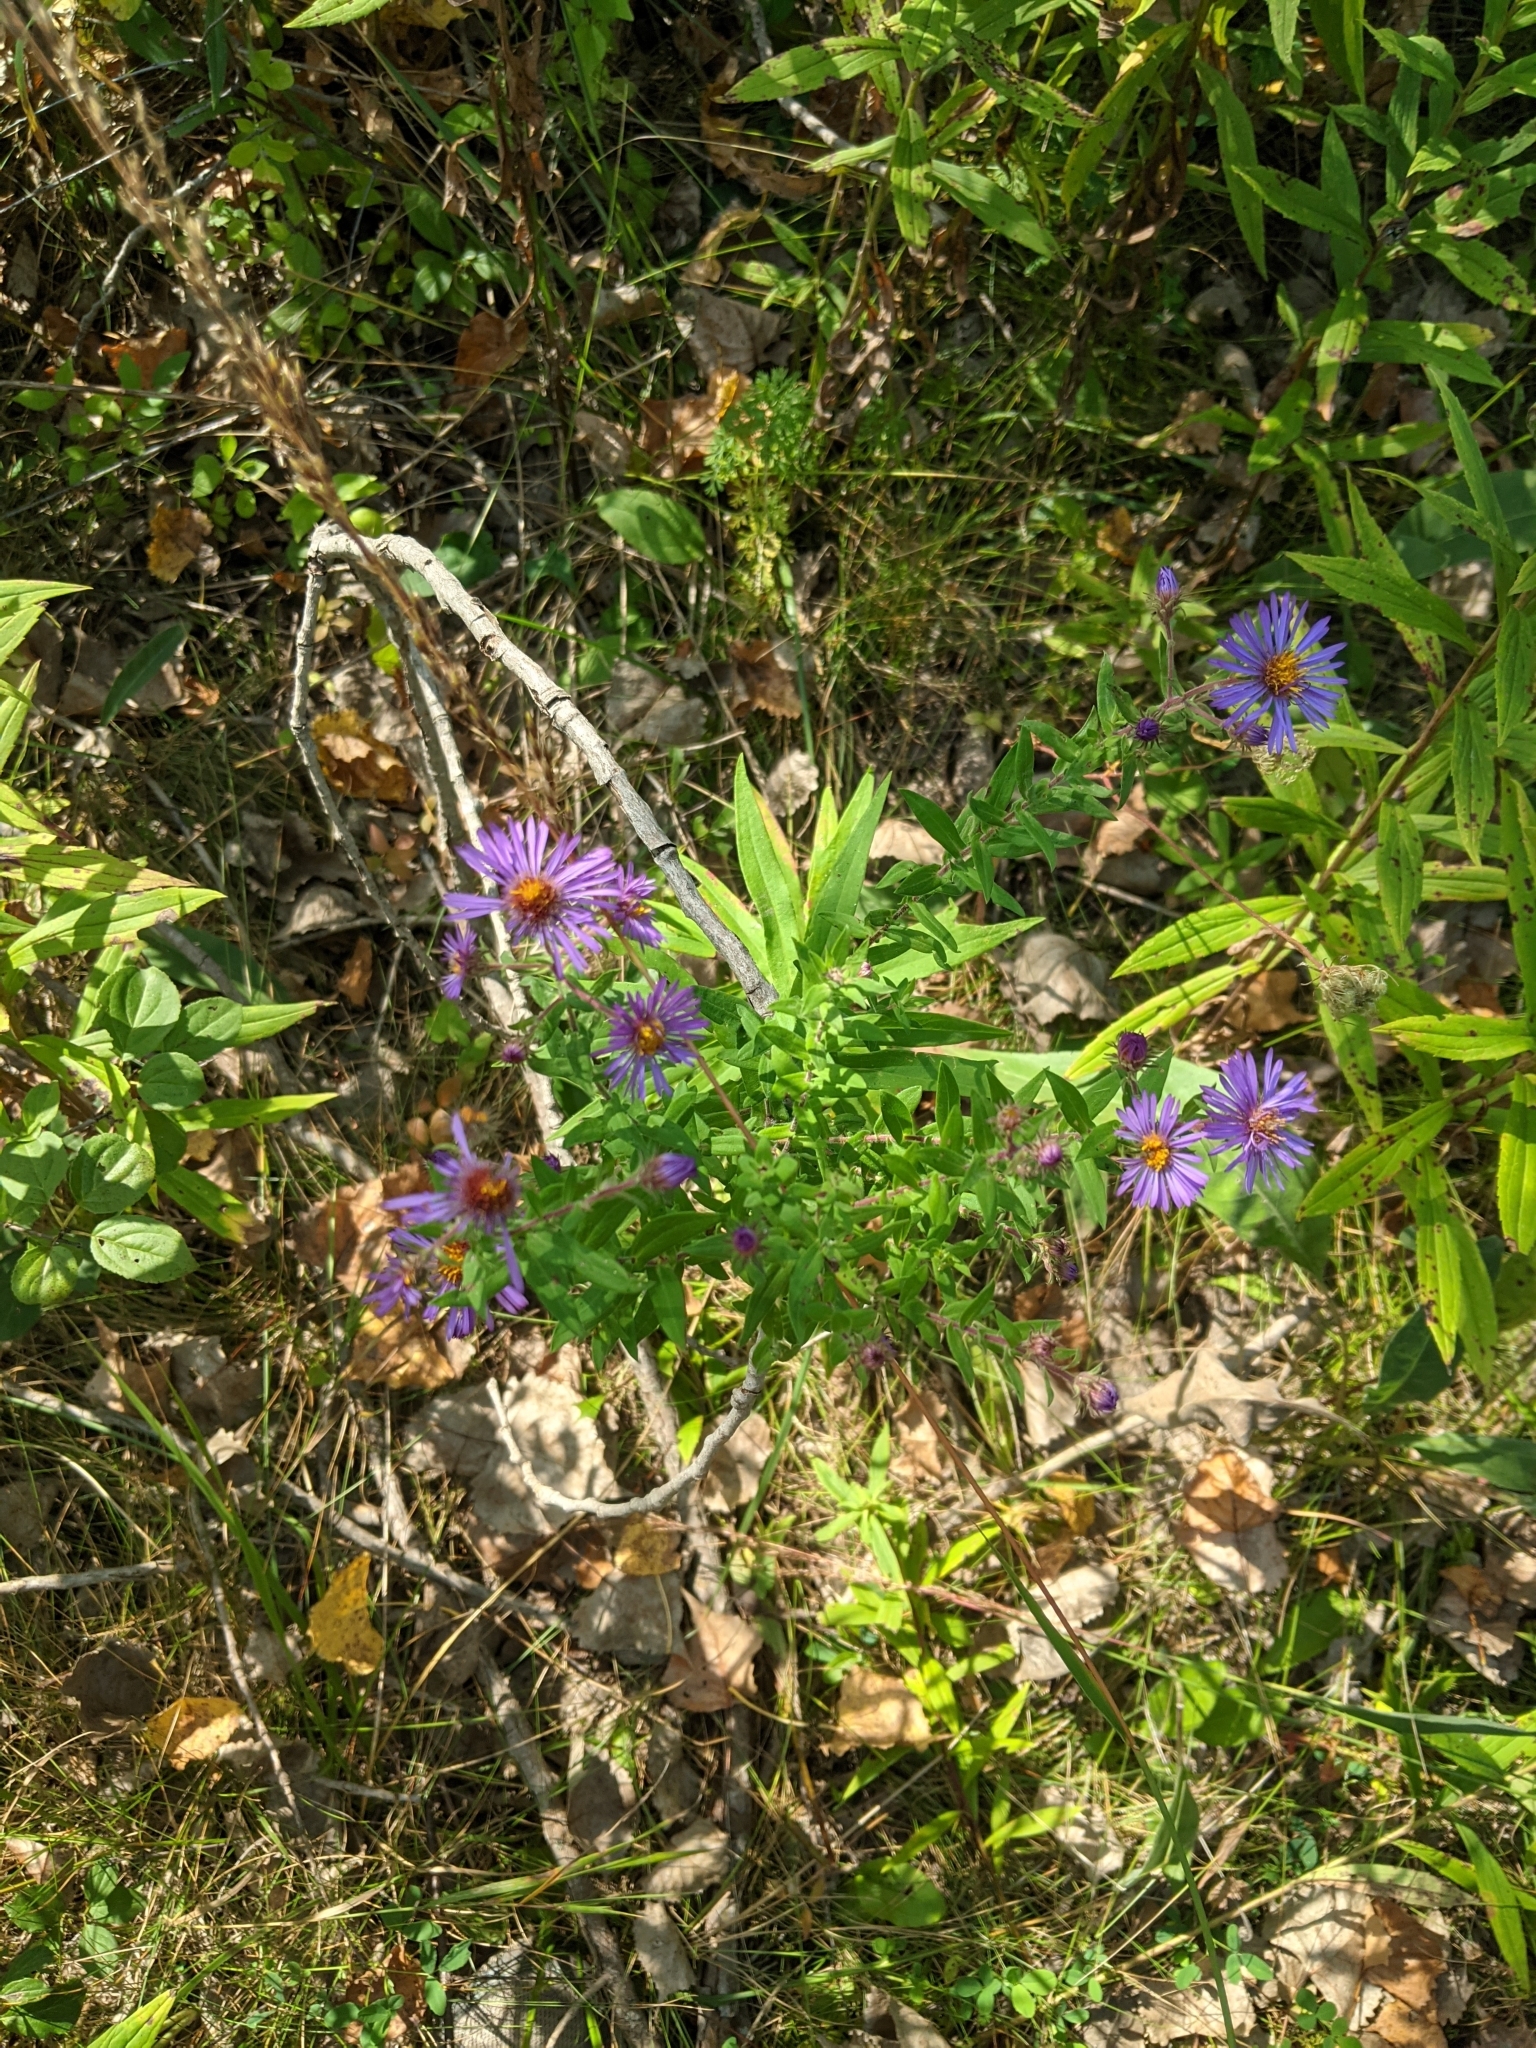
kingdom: Plantae
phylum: Tracheophyta
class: Magnoliopsida
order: Asterales
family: Asteraceae
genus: Symphyotrichum
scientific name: Symphyotrichum novae-angliae
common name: Michaelmas daisy
